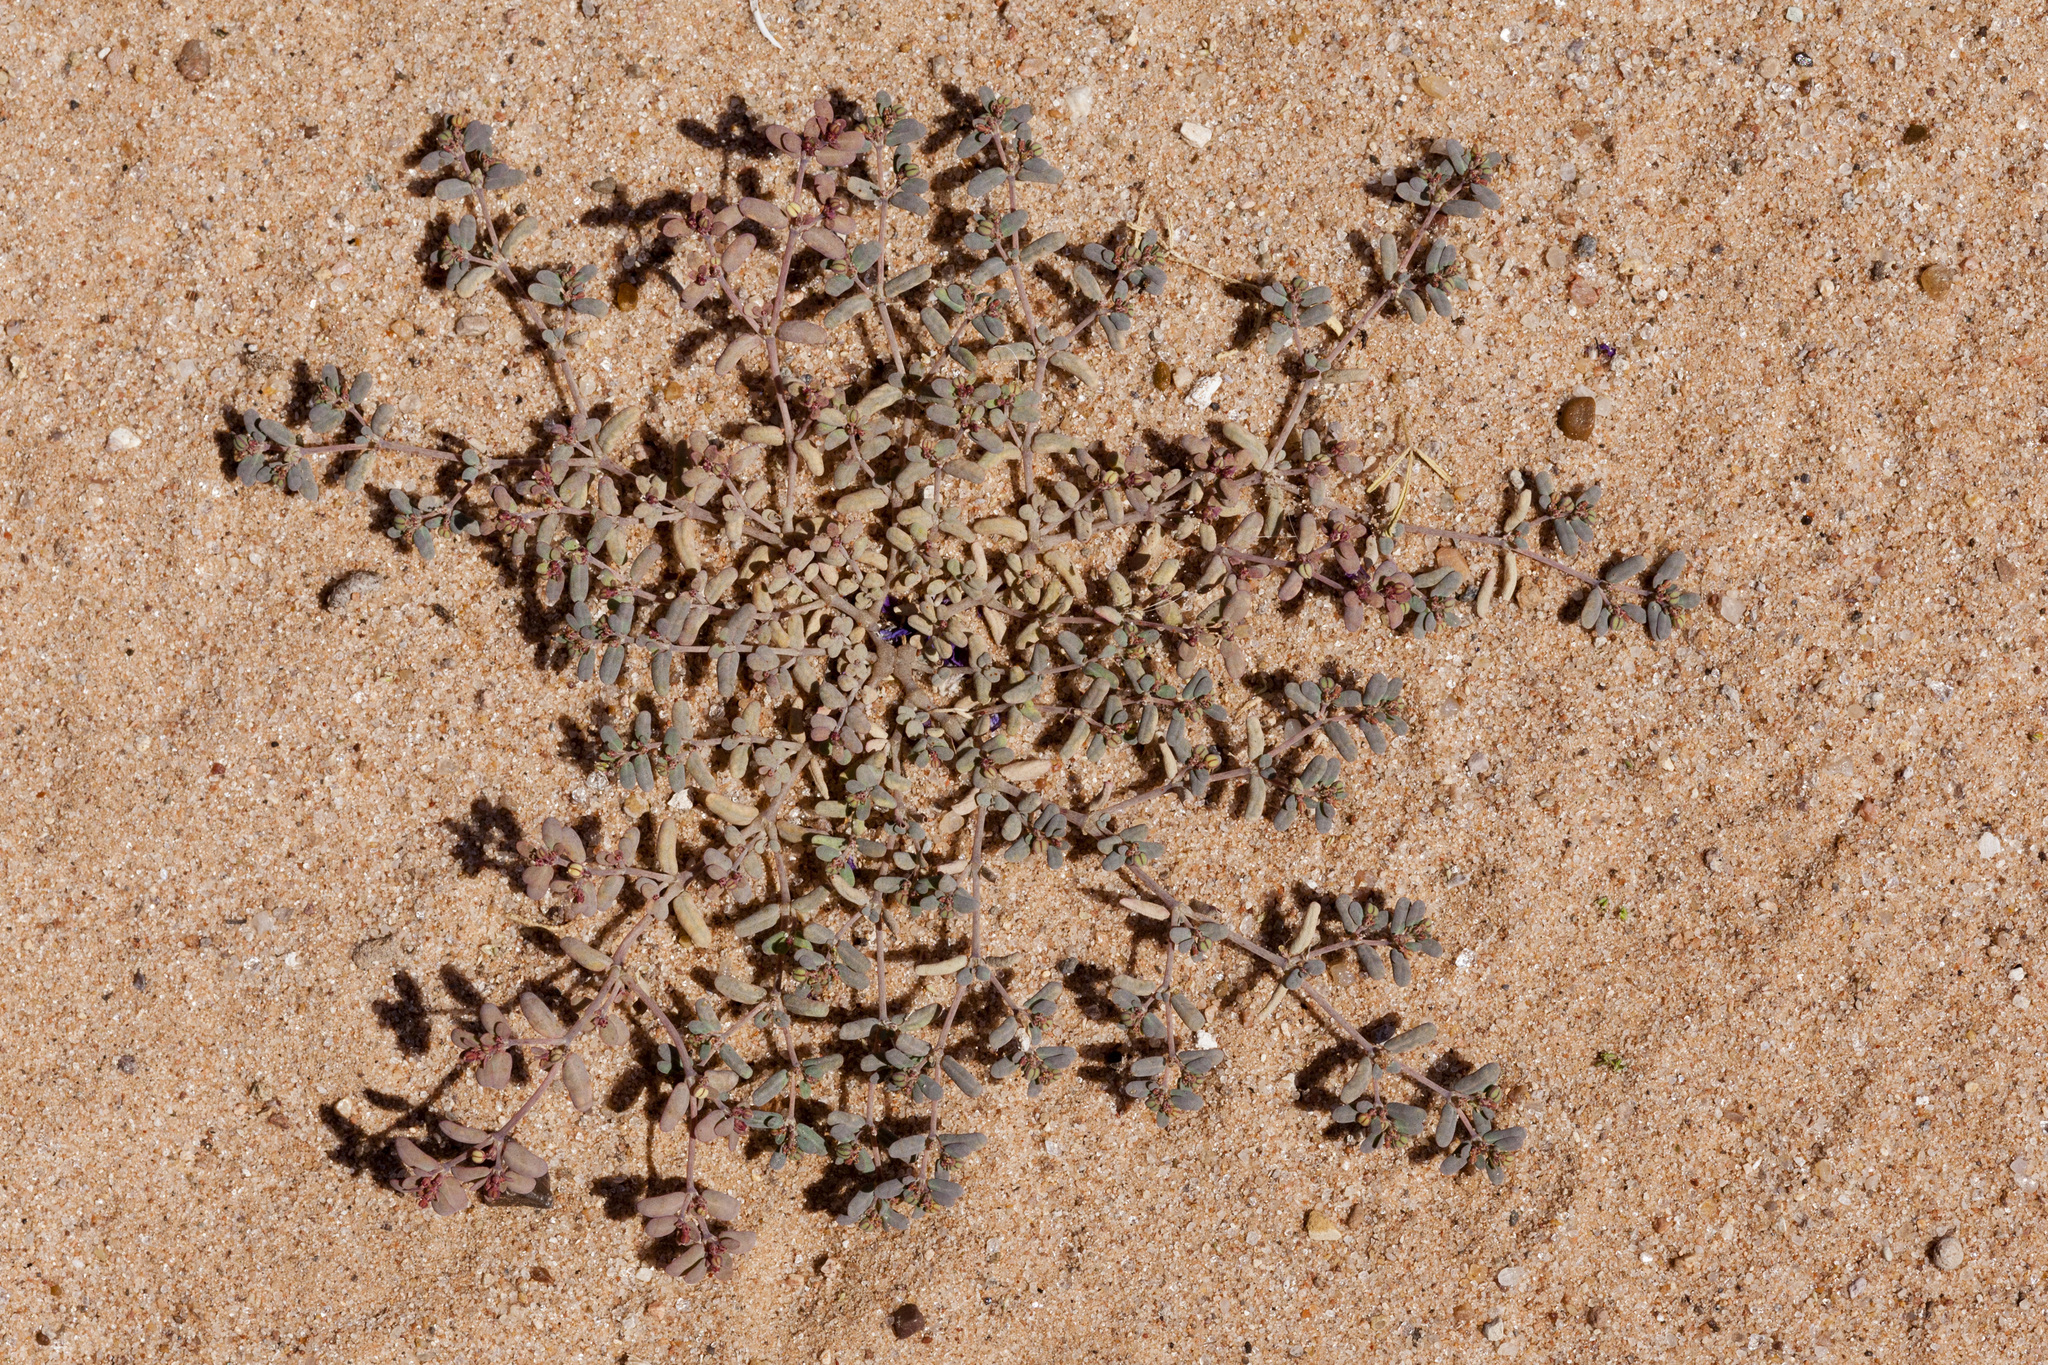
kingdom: Plantae
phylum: Tracheophyta
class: Magnoliopsida
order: Malpighiales
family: Euphorbiaceae
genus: Euphorbia
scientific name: Euphorbia golondrina
